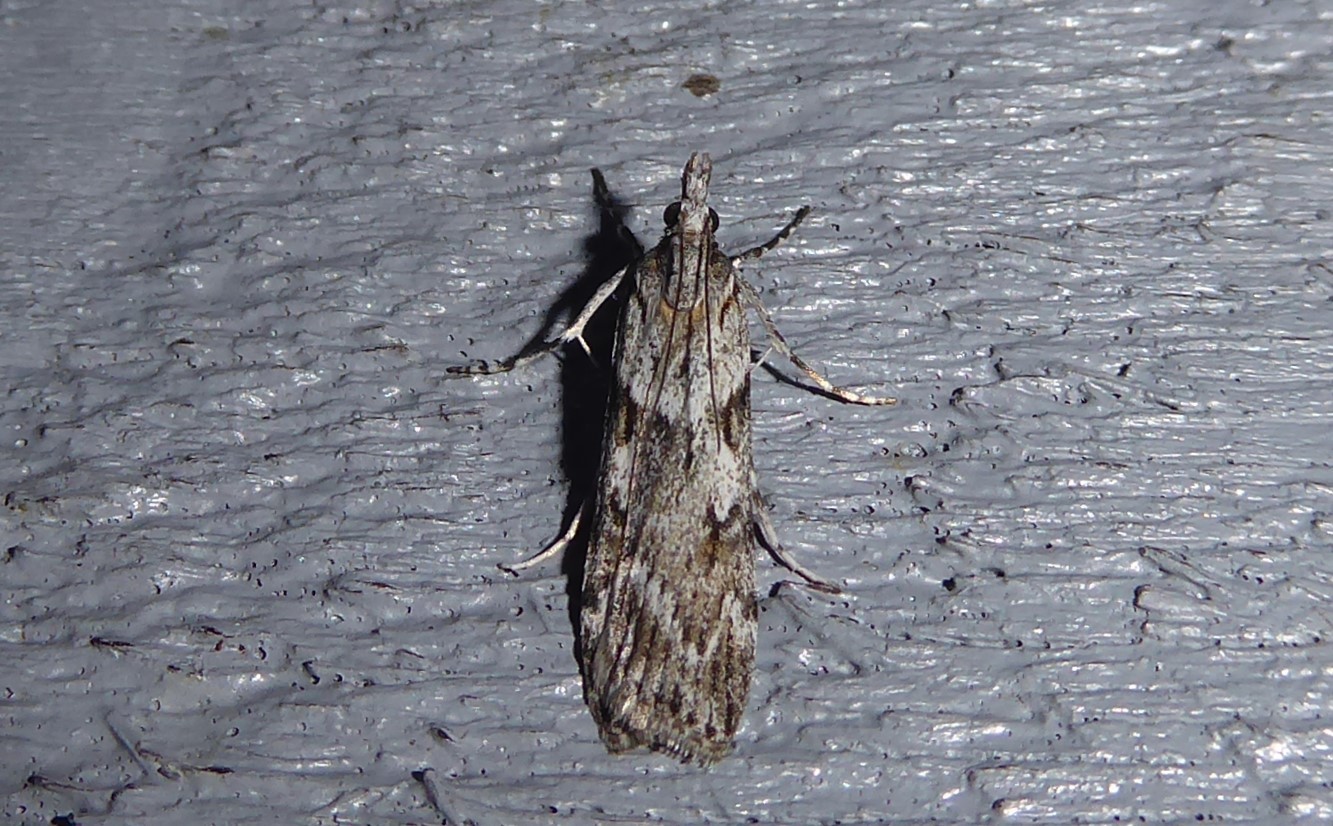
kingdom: Animalia
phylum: Arthropoda
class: Insecta
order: Lepidoptera
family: Crambidae
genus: Scoparia
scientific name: Scoparia halopis
